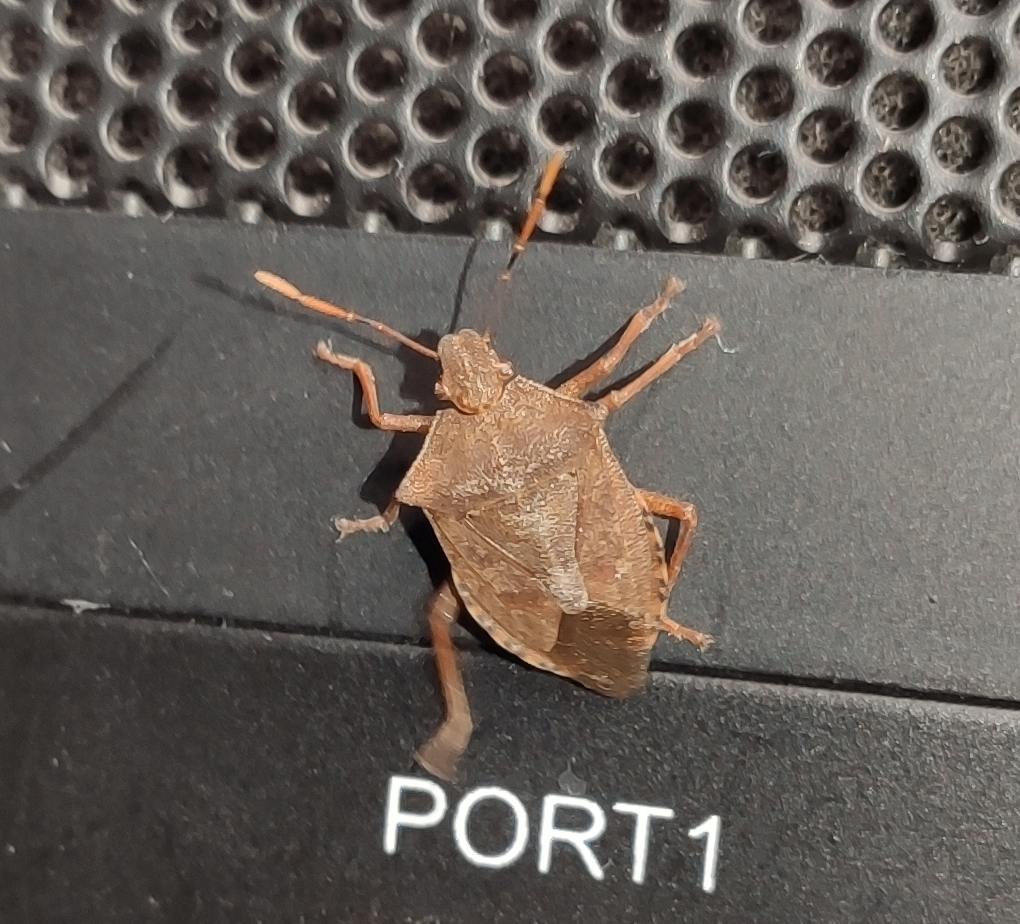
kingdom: Animalia
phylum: Arthropoda
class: Insecta
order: Hemiptera
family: Pentatomidae
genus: Arma
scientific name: Arma custos
